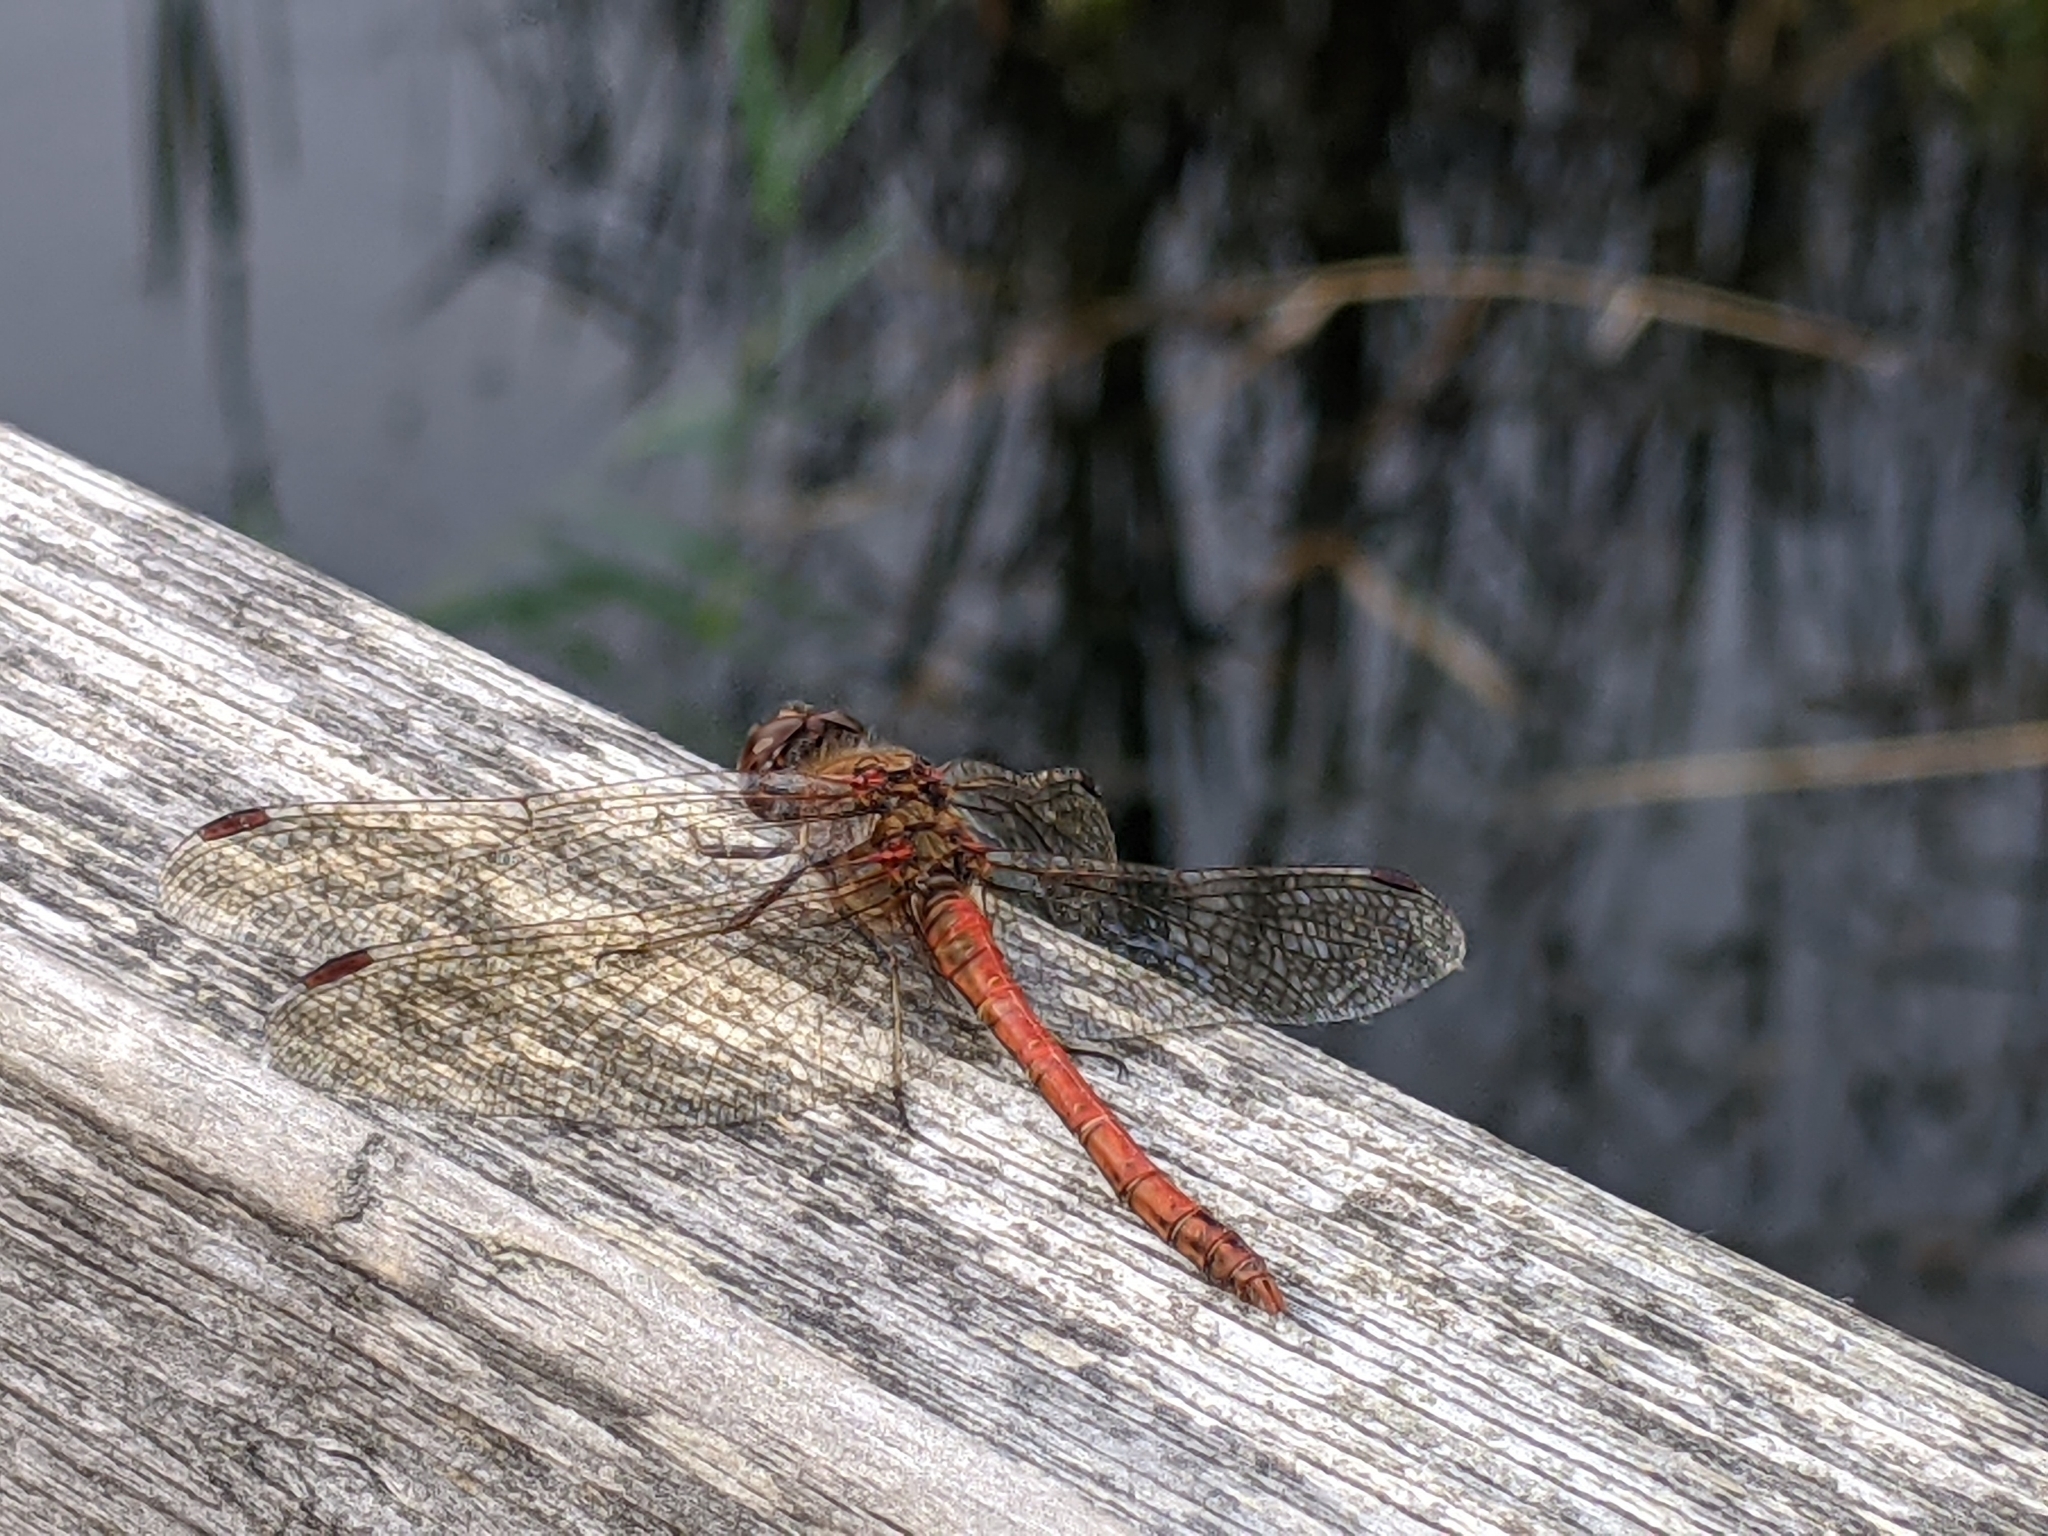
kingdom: Animalia
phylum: Arthropoda
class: Insecta
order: Odonata
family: Libellulidae
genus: Sympetrum
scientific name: Sympetrum striolatum
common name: Common darter
